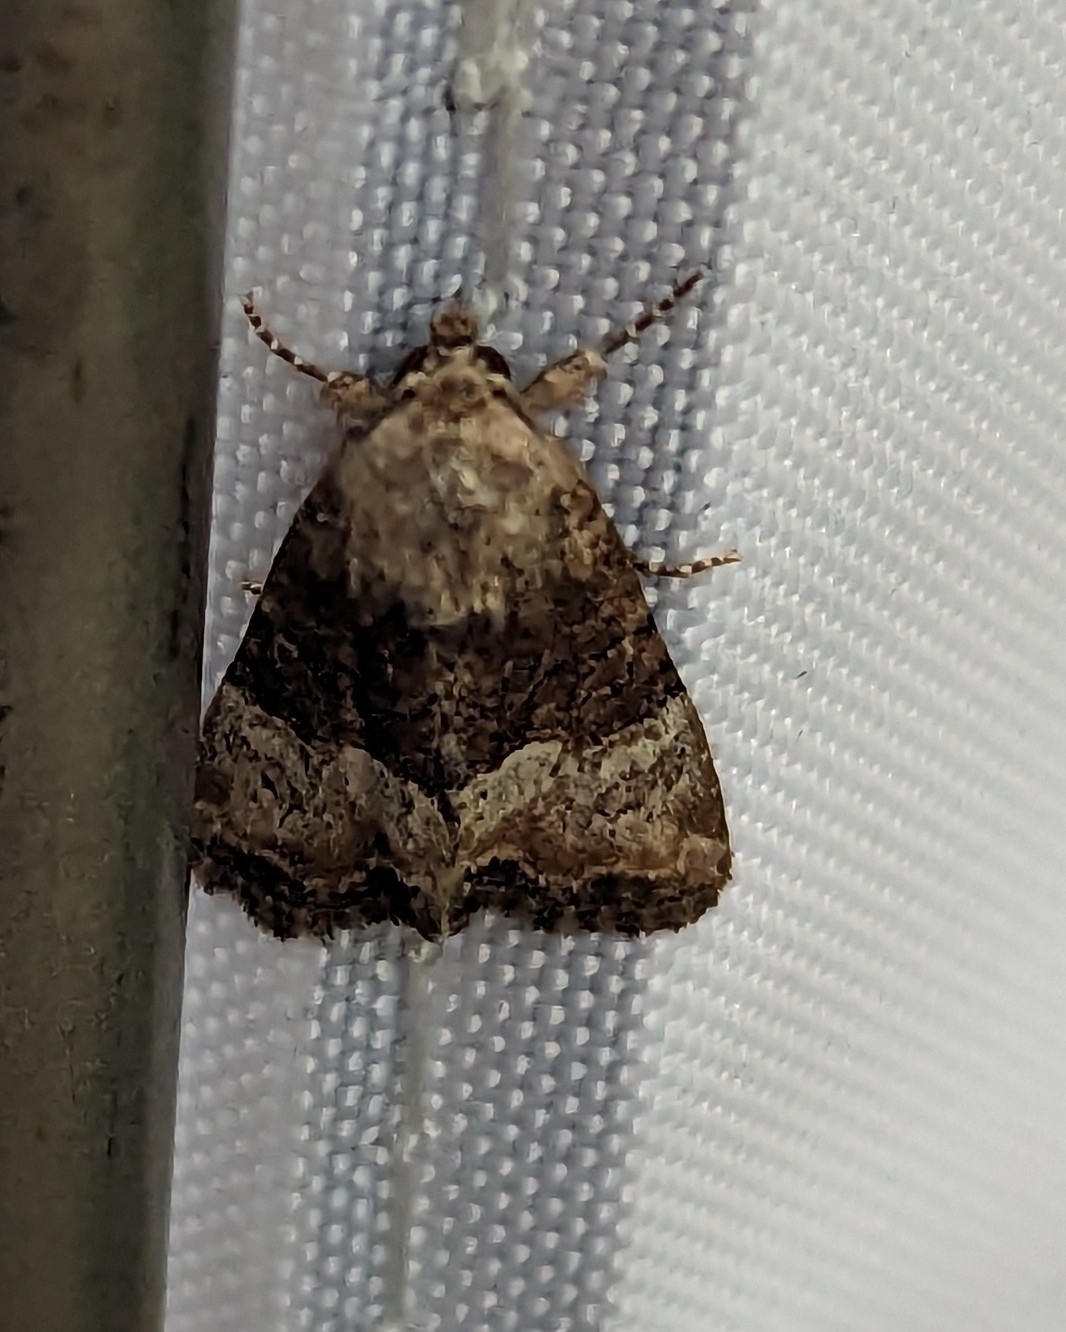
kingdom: Animalia
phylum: Arthropoda
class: Insecta
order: Lepidoptera
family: Noctuidae
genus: Mesoligia
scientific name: Mesoligia furuncula
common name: Cloaked minor
